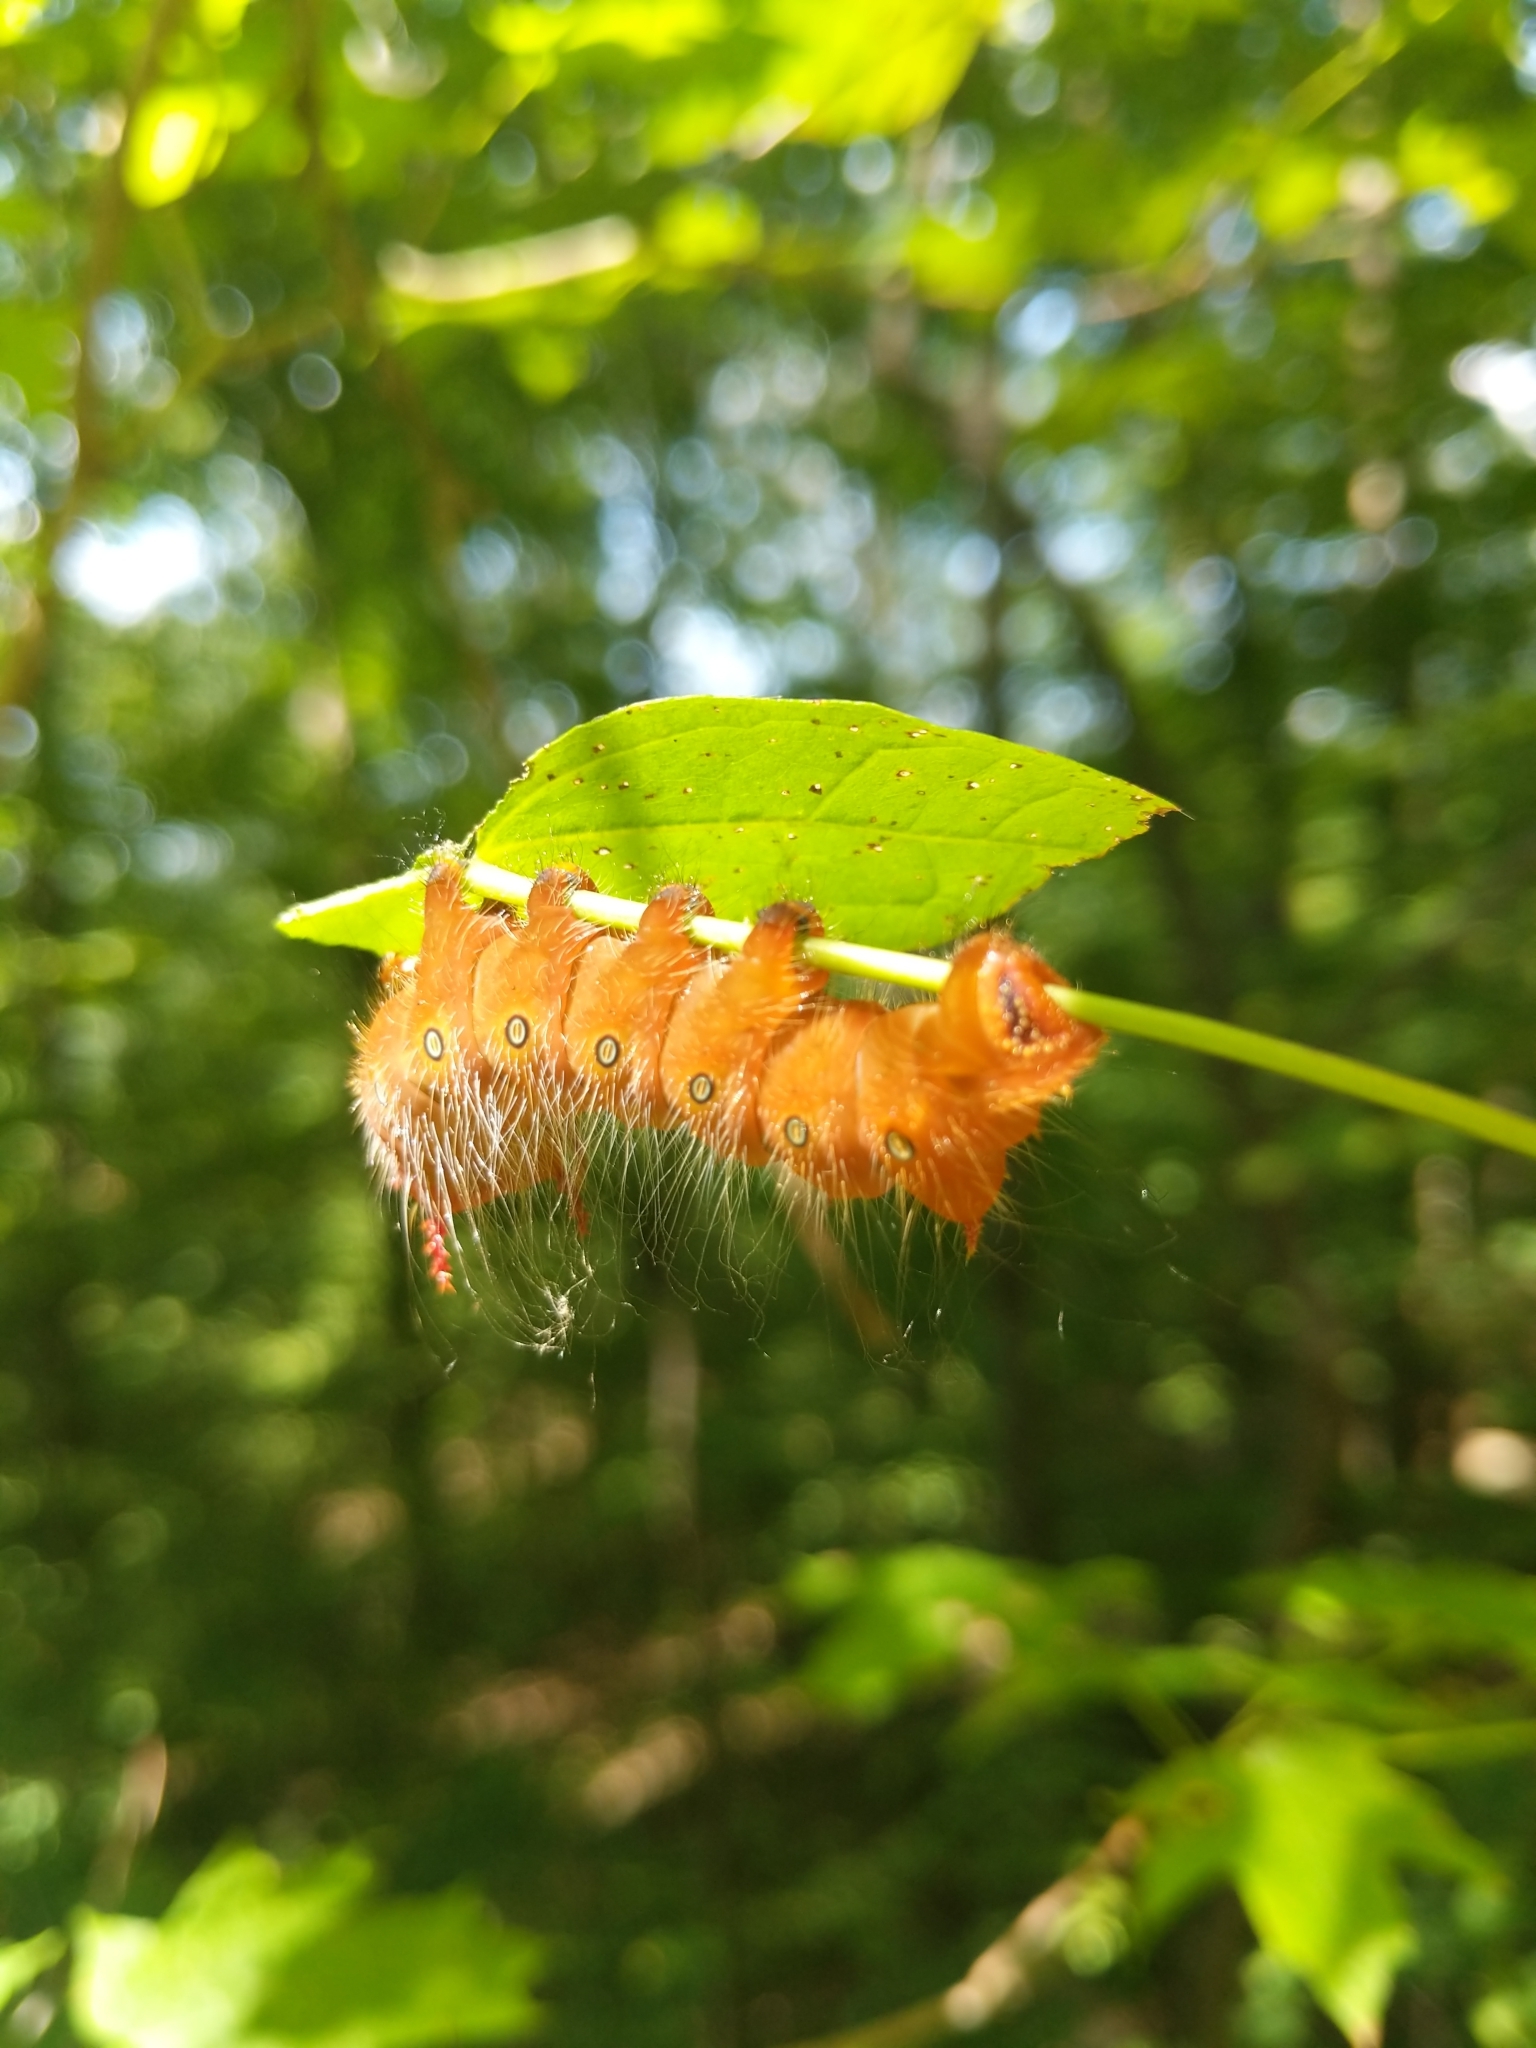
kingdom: Animalia
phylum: Arthropoda
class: Insecta
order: Lepidoptera
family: Saturniidae
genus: Eacles
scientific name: Eacles imperialis
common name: Imperial moth
